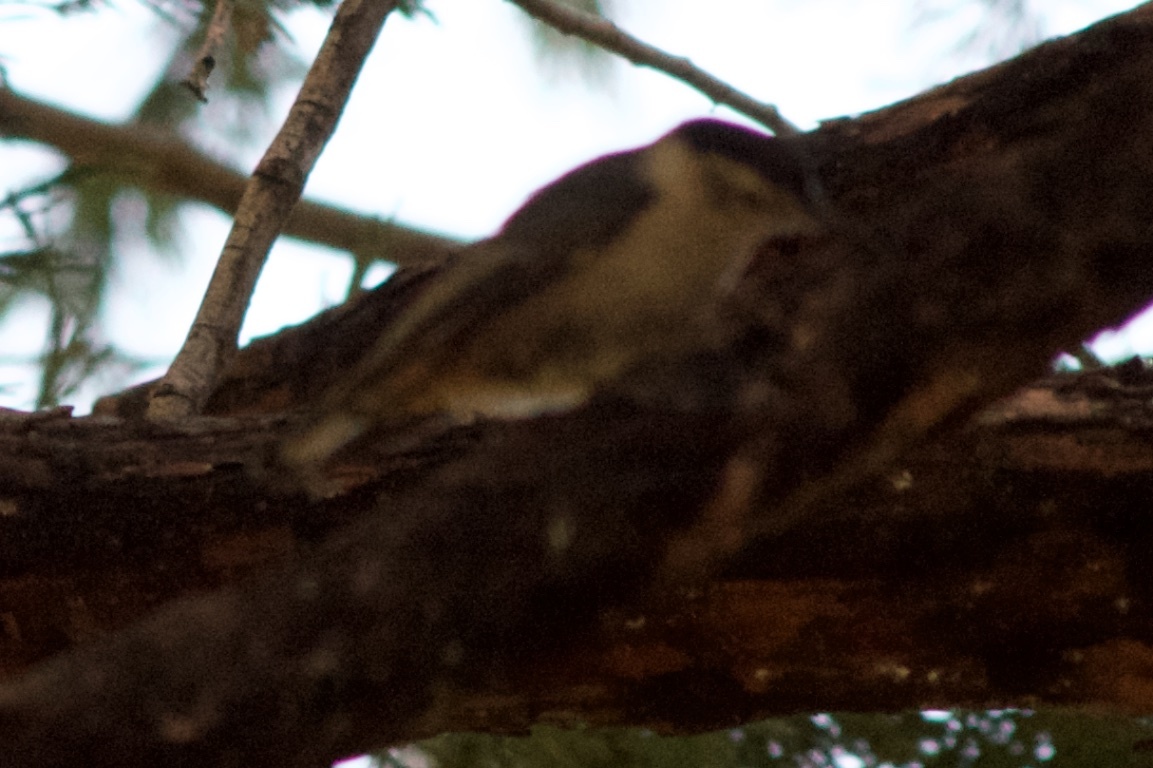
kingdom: Animalia
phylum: Chordata
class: Aves
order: Passeriformes
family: Sittidae
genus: Sitta
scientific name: Sitta carolinensis
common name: White-breasted nuthatch
